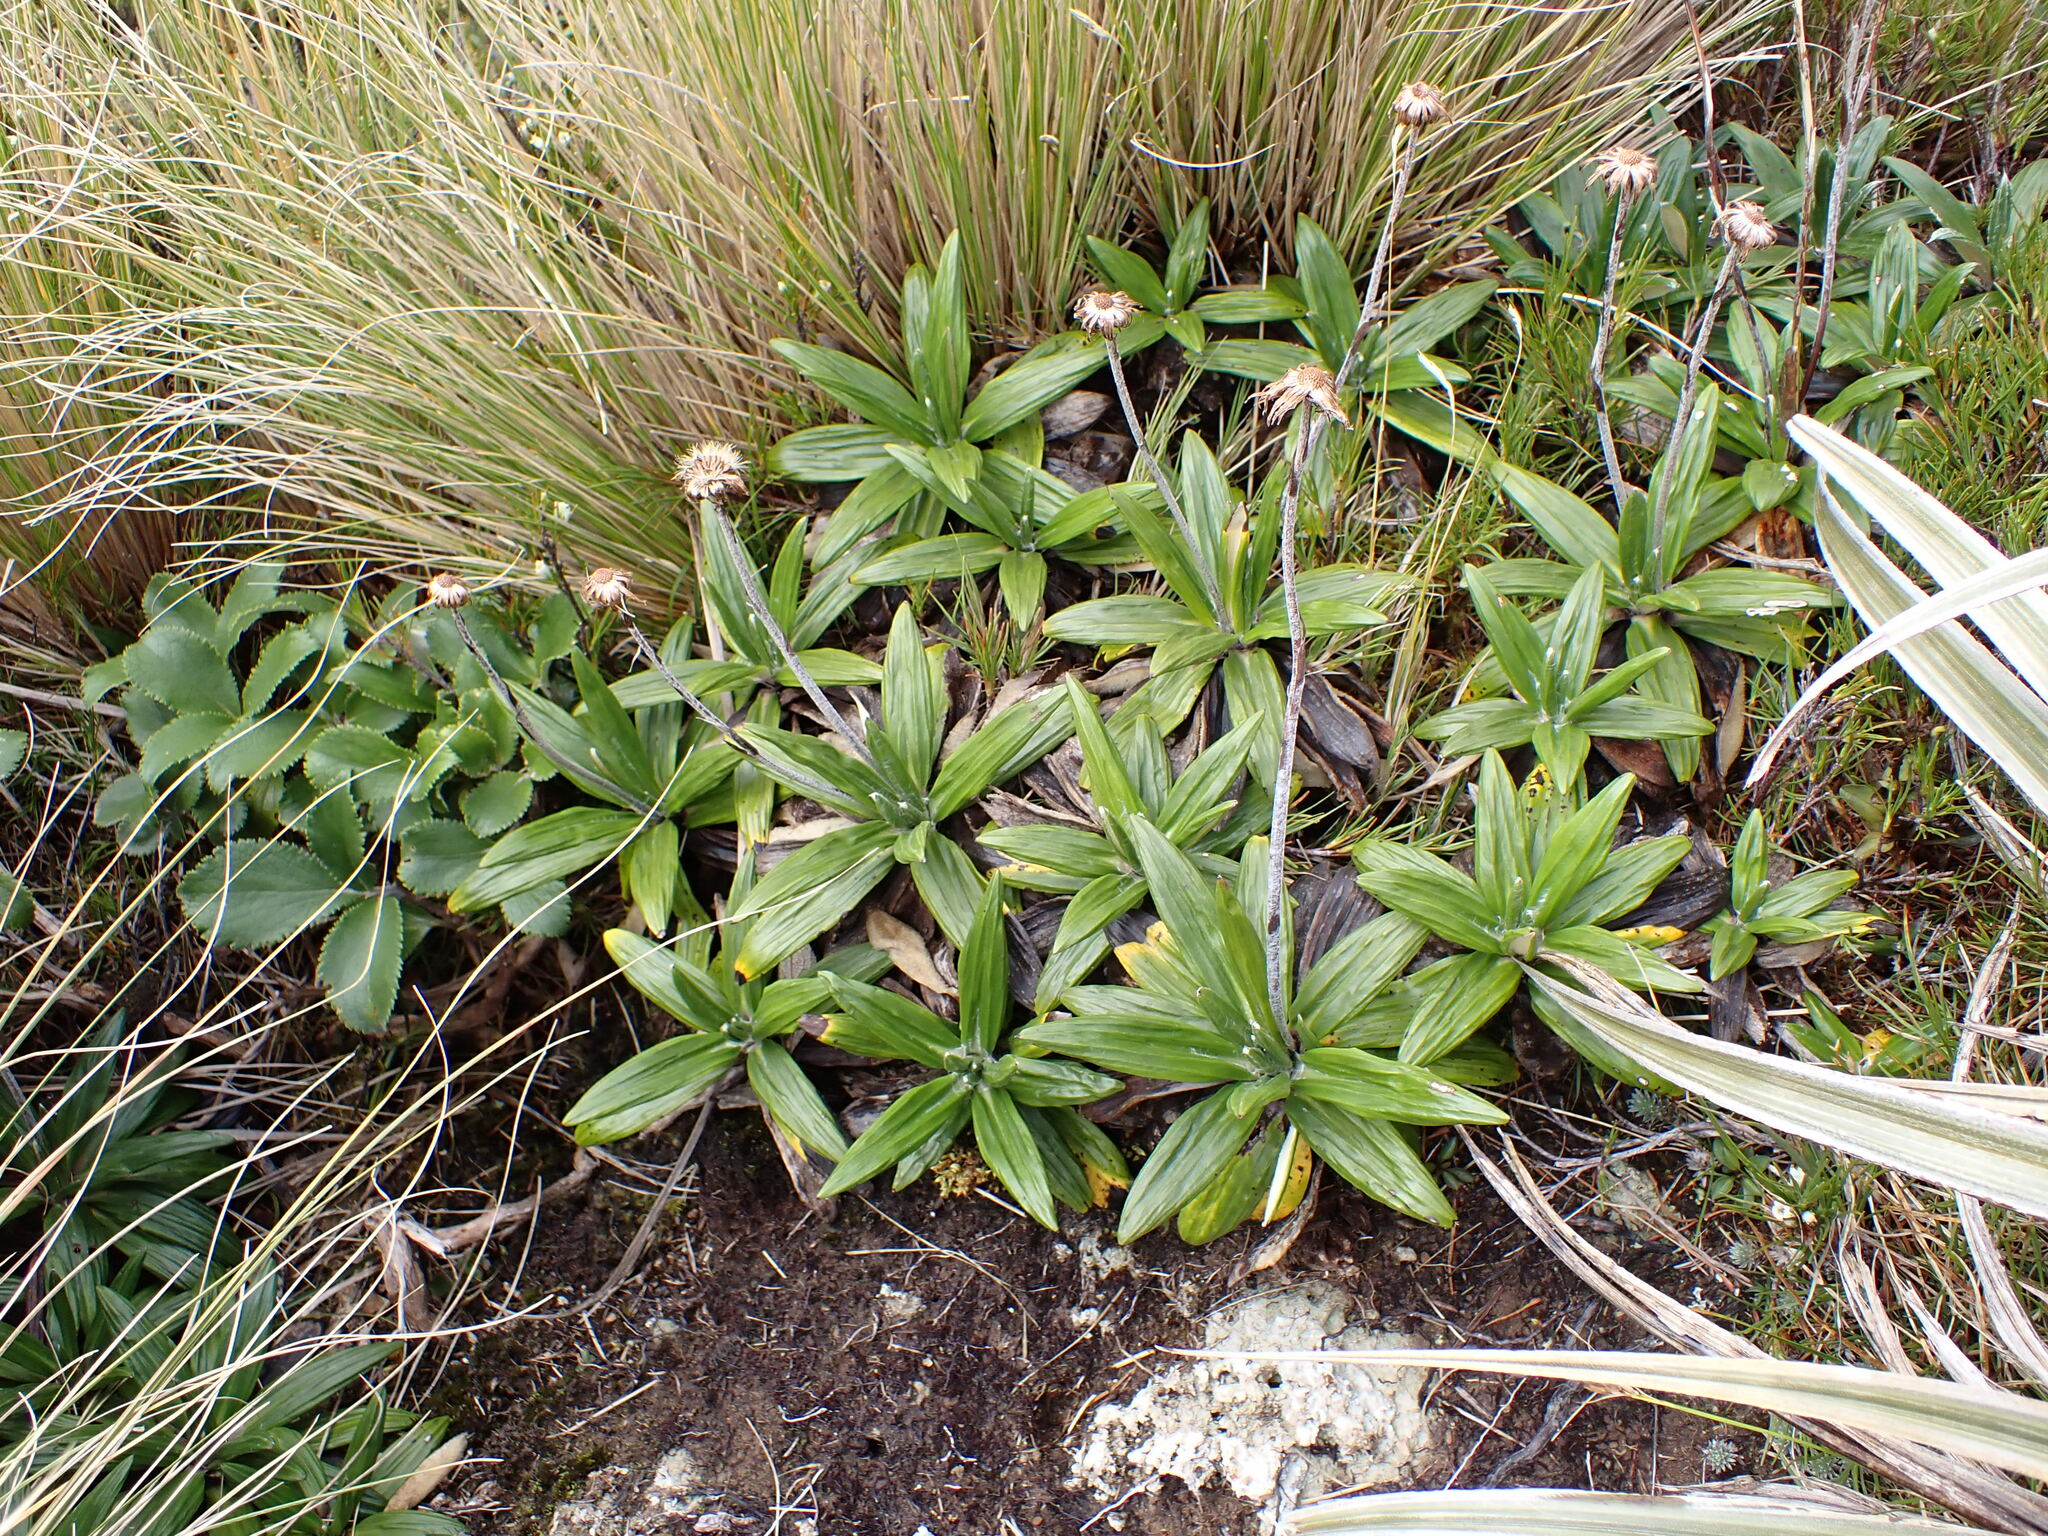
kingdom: Plantae
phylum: Tracheophyta
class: Magnoliopsida
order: Asterales
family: Asteraceae
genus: Celmisia
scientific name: Celmisia spectabilis
